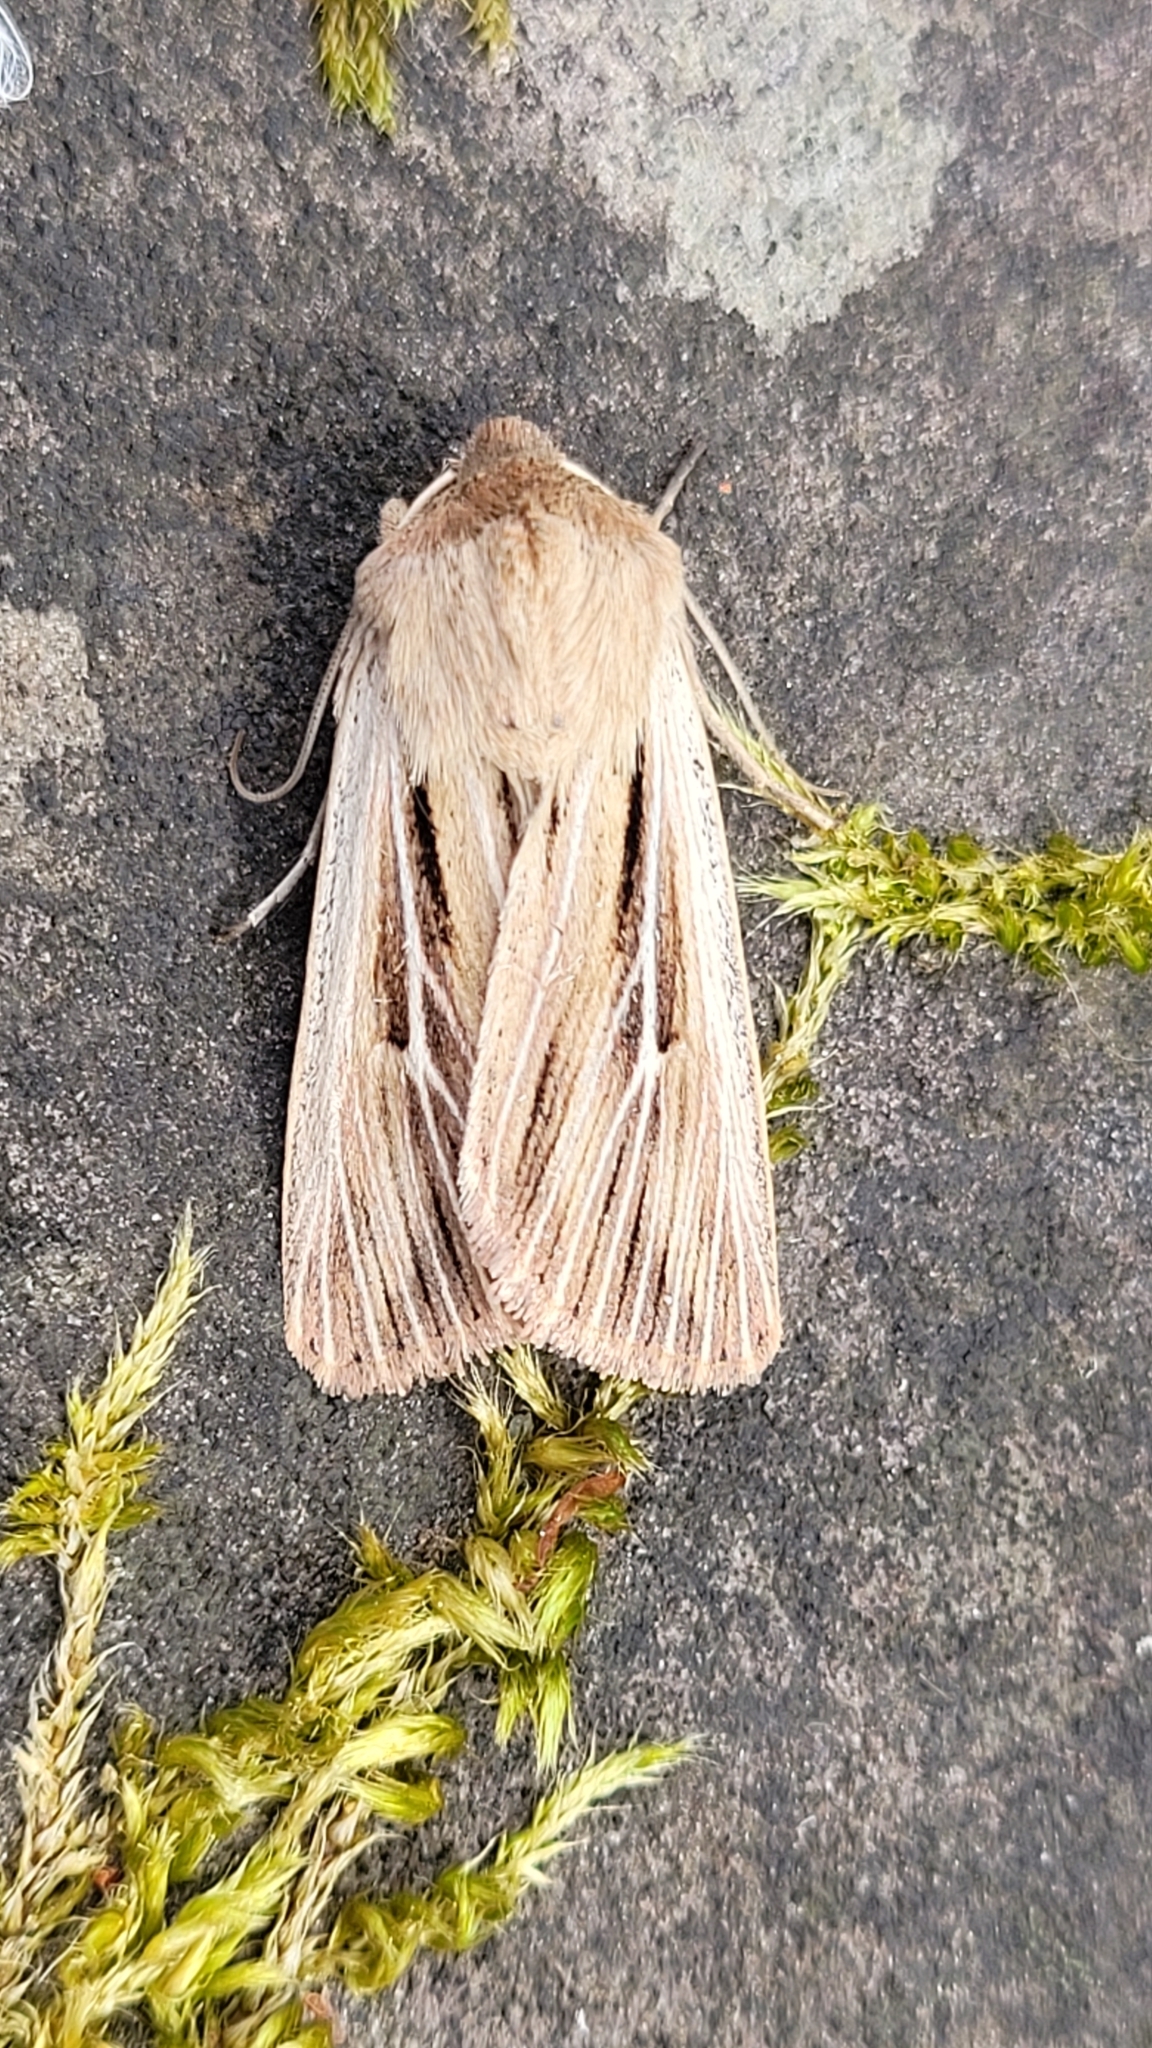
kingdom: Animalia
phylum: Arthropoda
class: Insecta
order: Lepidoptera
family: Noctuidae
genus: Leucania
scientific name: Leucania comma
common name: Shoulder-striped wainscot
